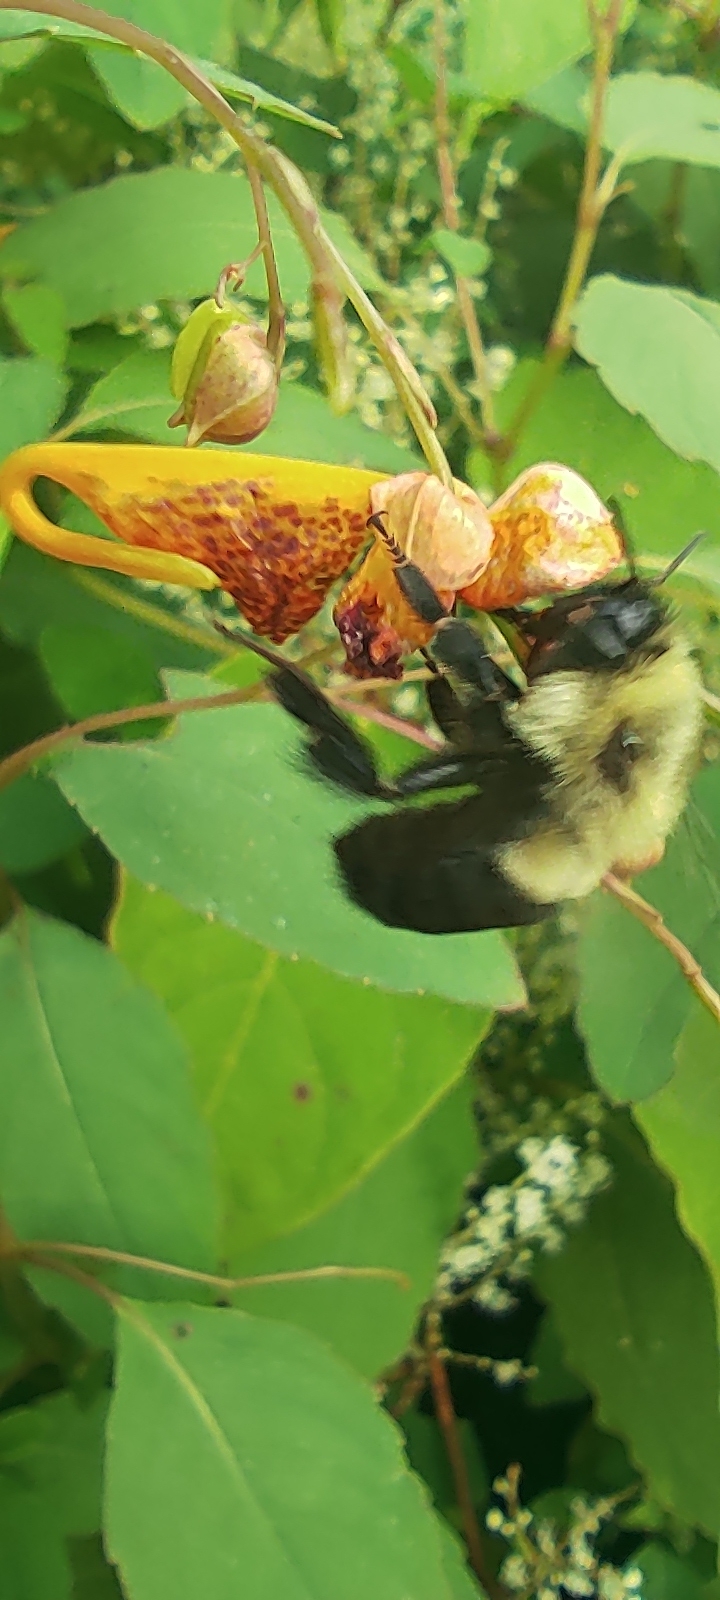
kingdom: Animalia
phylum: Arthropoda
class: Insecta
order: Hymenoptera
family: Apidae
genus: Bombus
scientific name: Bombus impatiens
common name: Common eastern bumble bee
